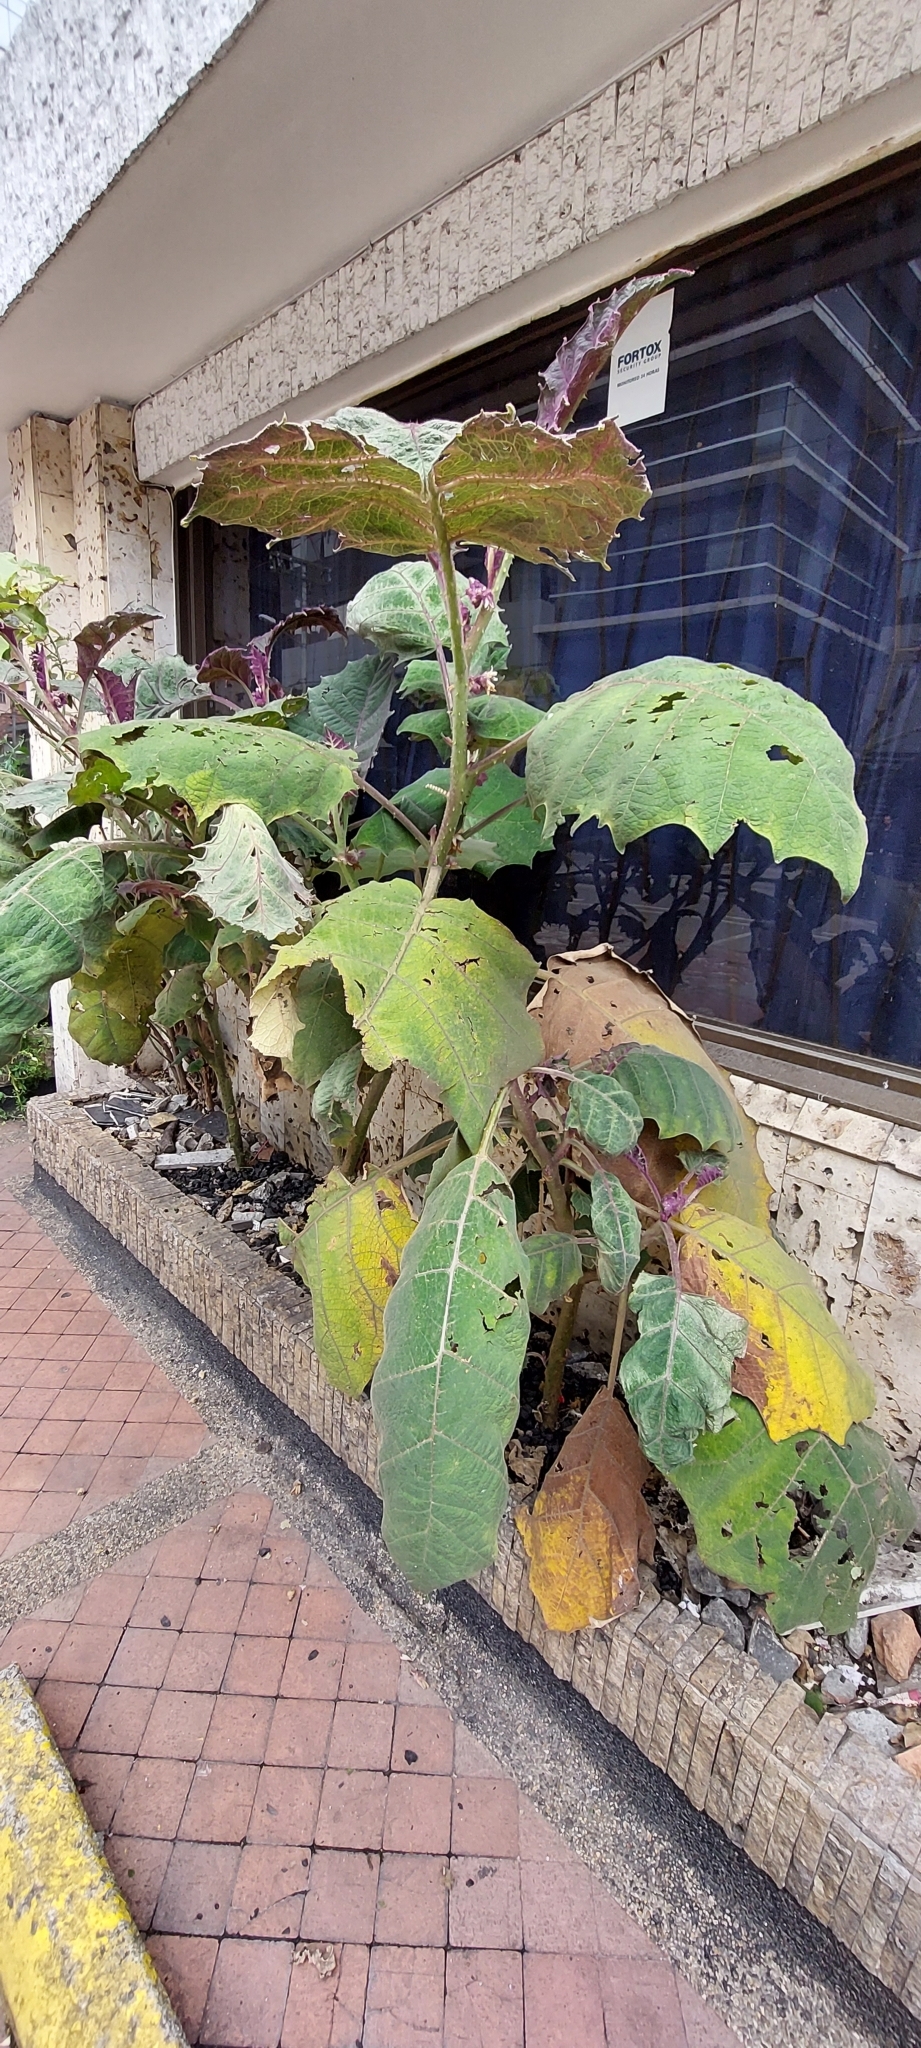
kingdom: Plantae
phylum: Tracheophyta
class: Magnoliopsida
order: Solanales
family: Solanaceae
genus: Solanum
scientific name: Solanum quitoense
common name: Quito-orange
